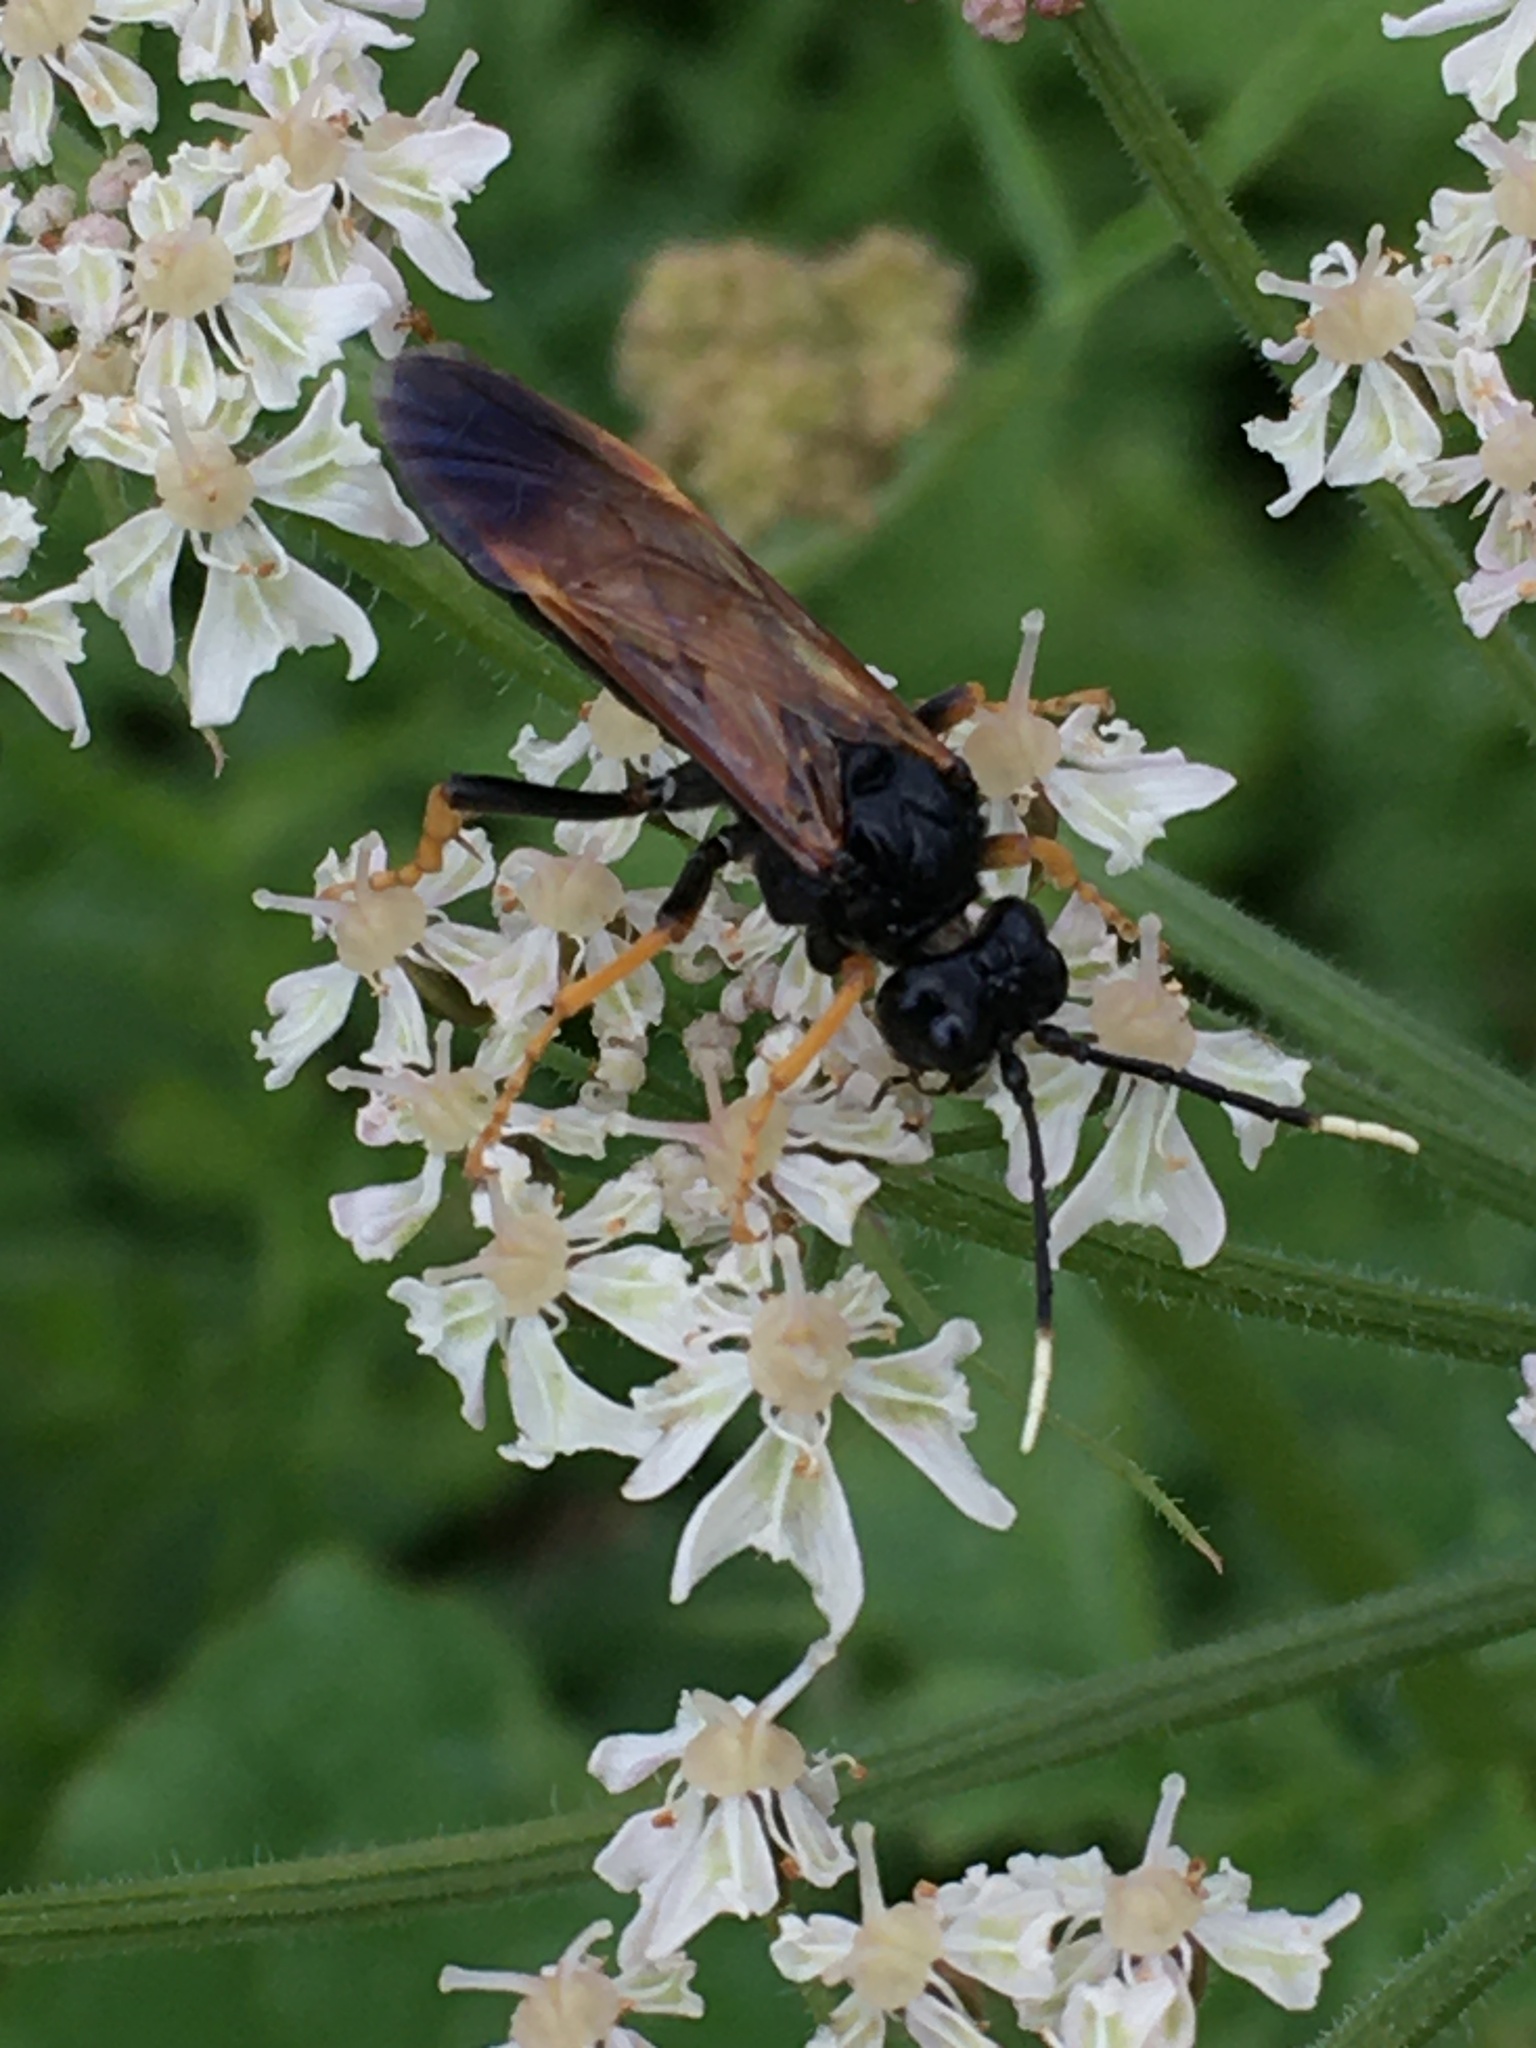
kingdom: Animalia
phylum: Arthropoda
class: Insecta
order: Hymenoptera
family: Tenthredinidae
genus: Tenthredo
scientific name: Tenthredo crassa
